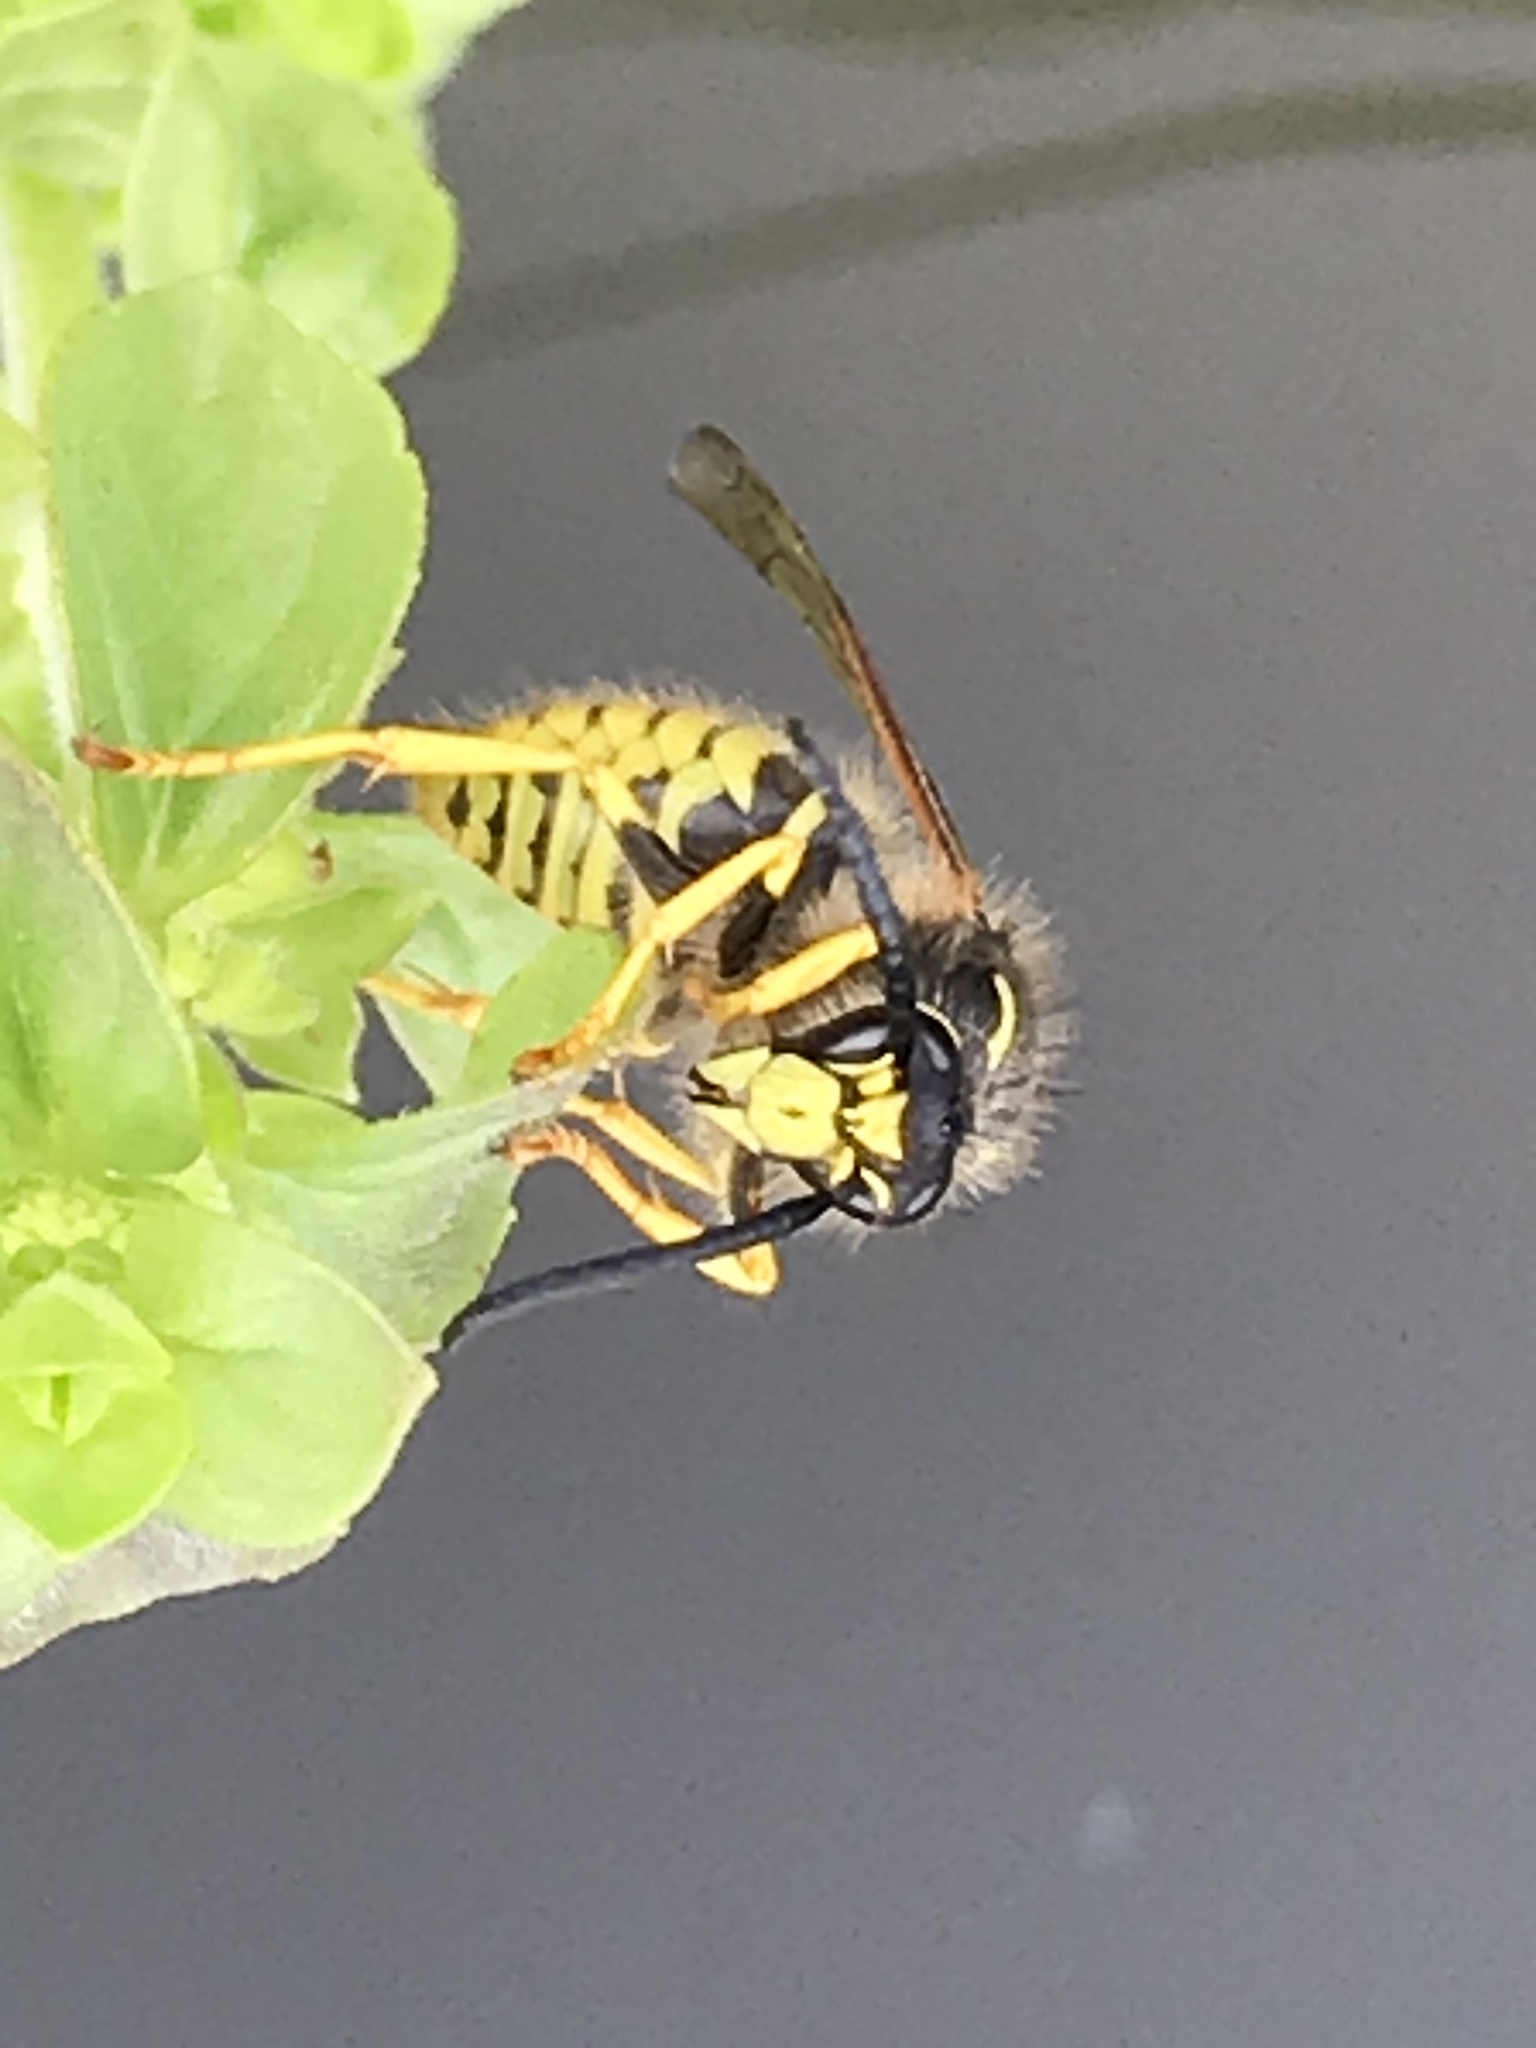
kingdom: Animalia
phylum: Arthropoda
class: Insecta
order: Hymenoptera
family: Vespidae
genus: Dolichovespula
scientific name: Dolichovespula sylvestris
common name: Tree wasp
